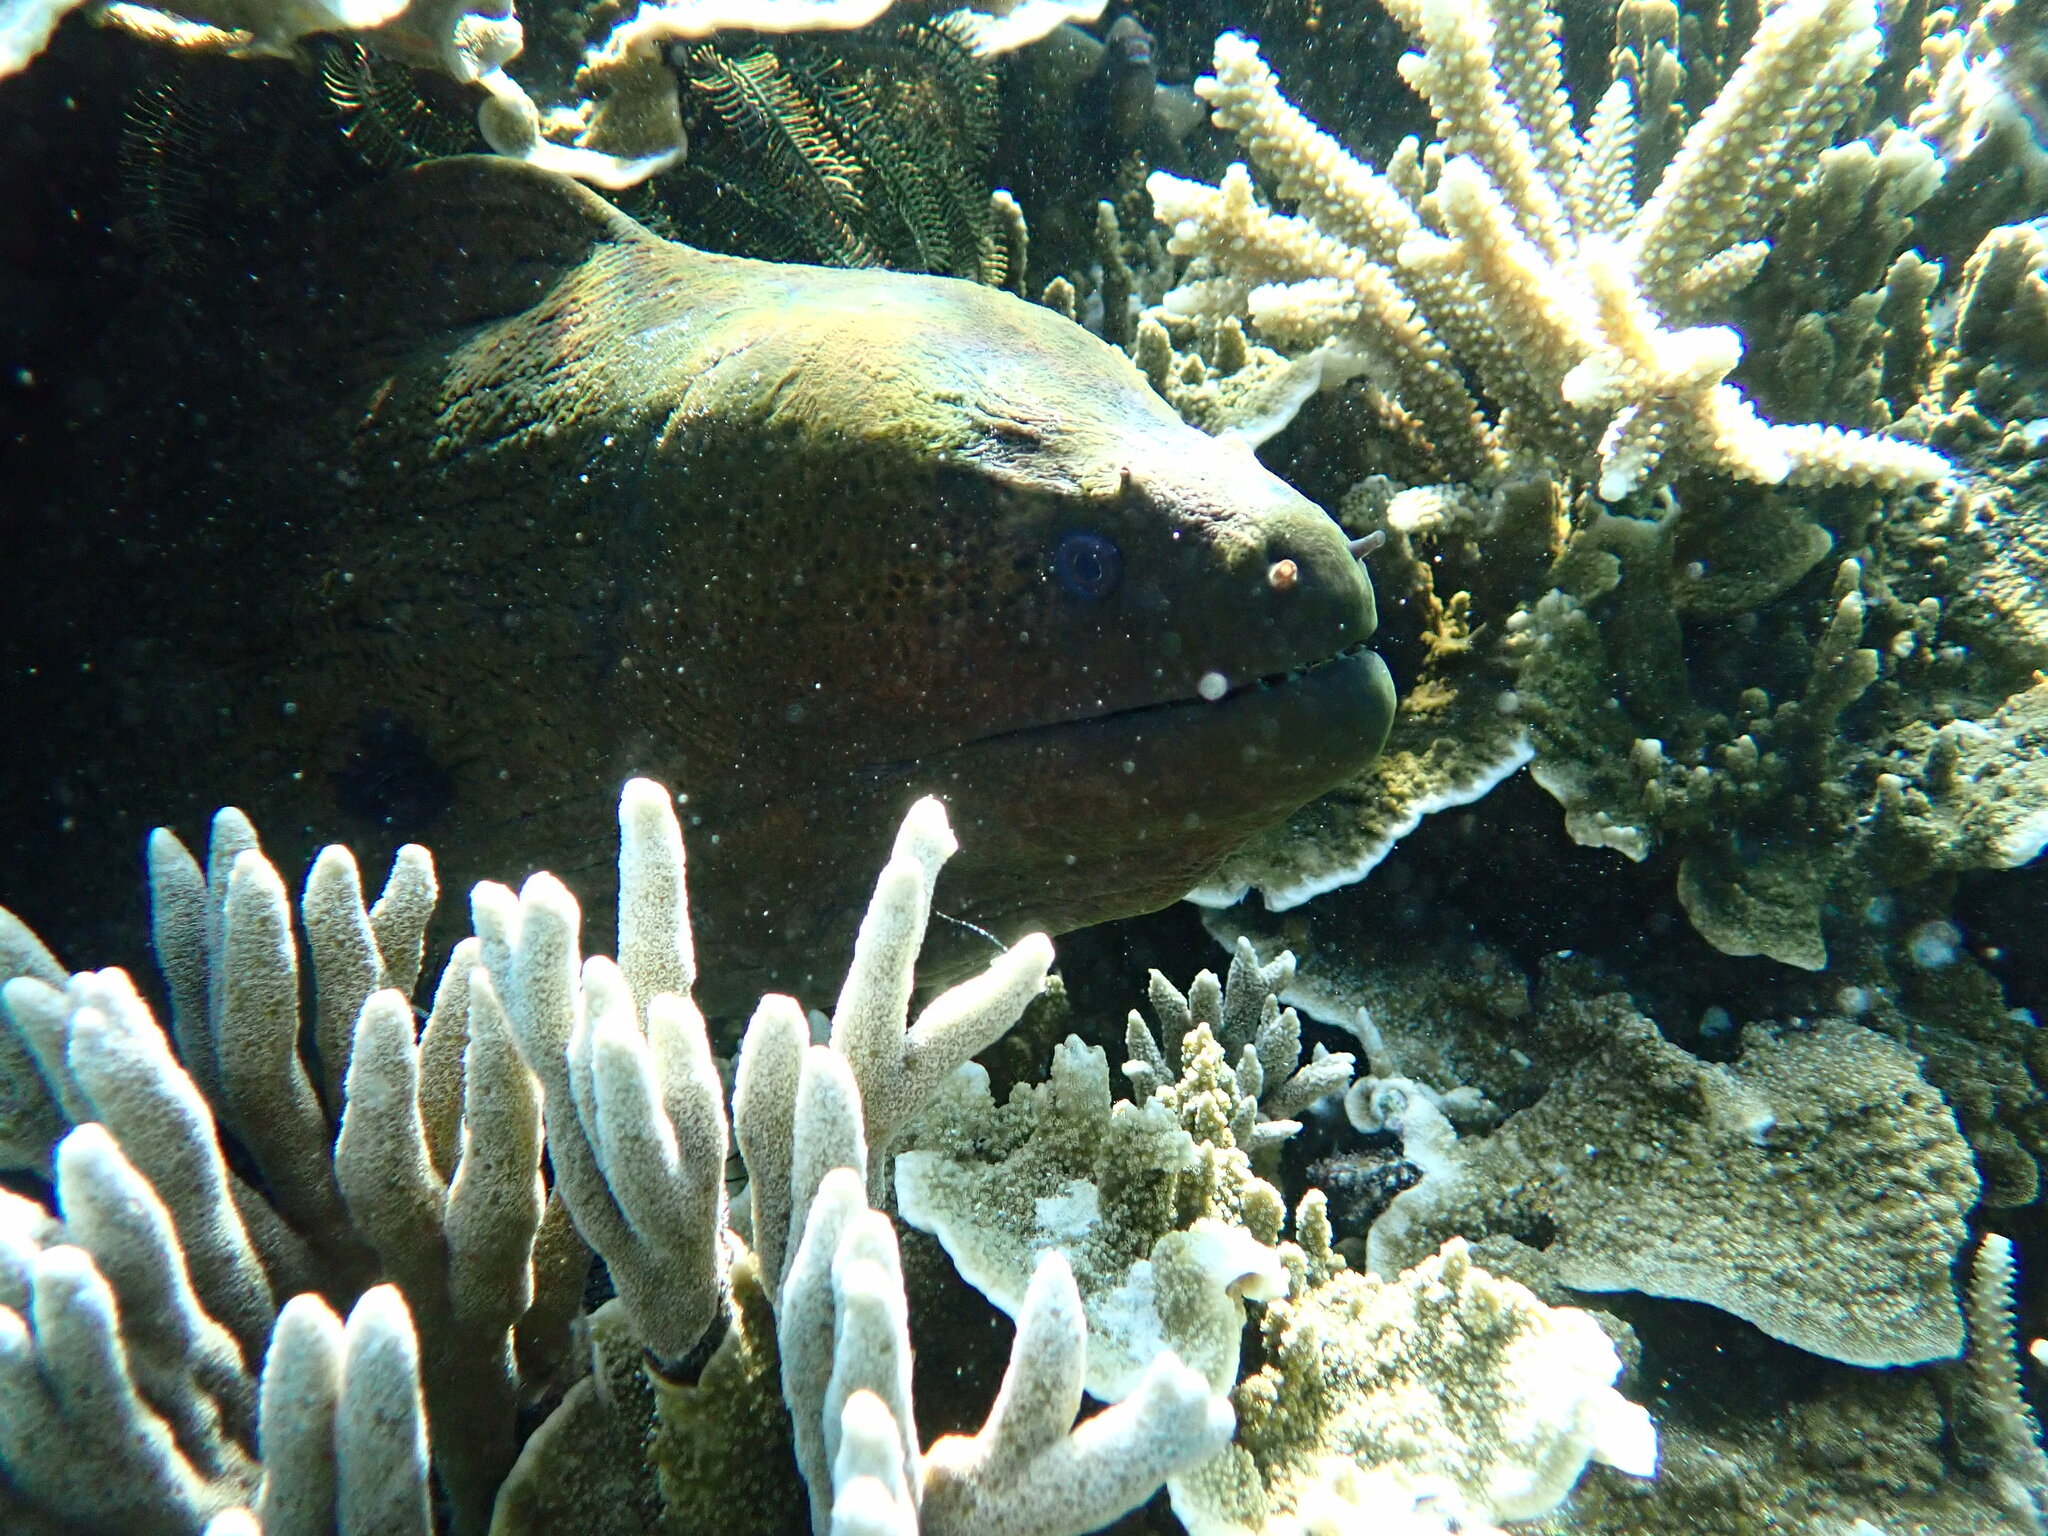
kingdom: Animalia
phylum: Chordata
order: Anguilliformes
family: Muraenidae
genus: Gymnothorax
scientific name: Gymnothorax javanicus
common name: Giant moray
